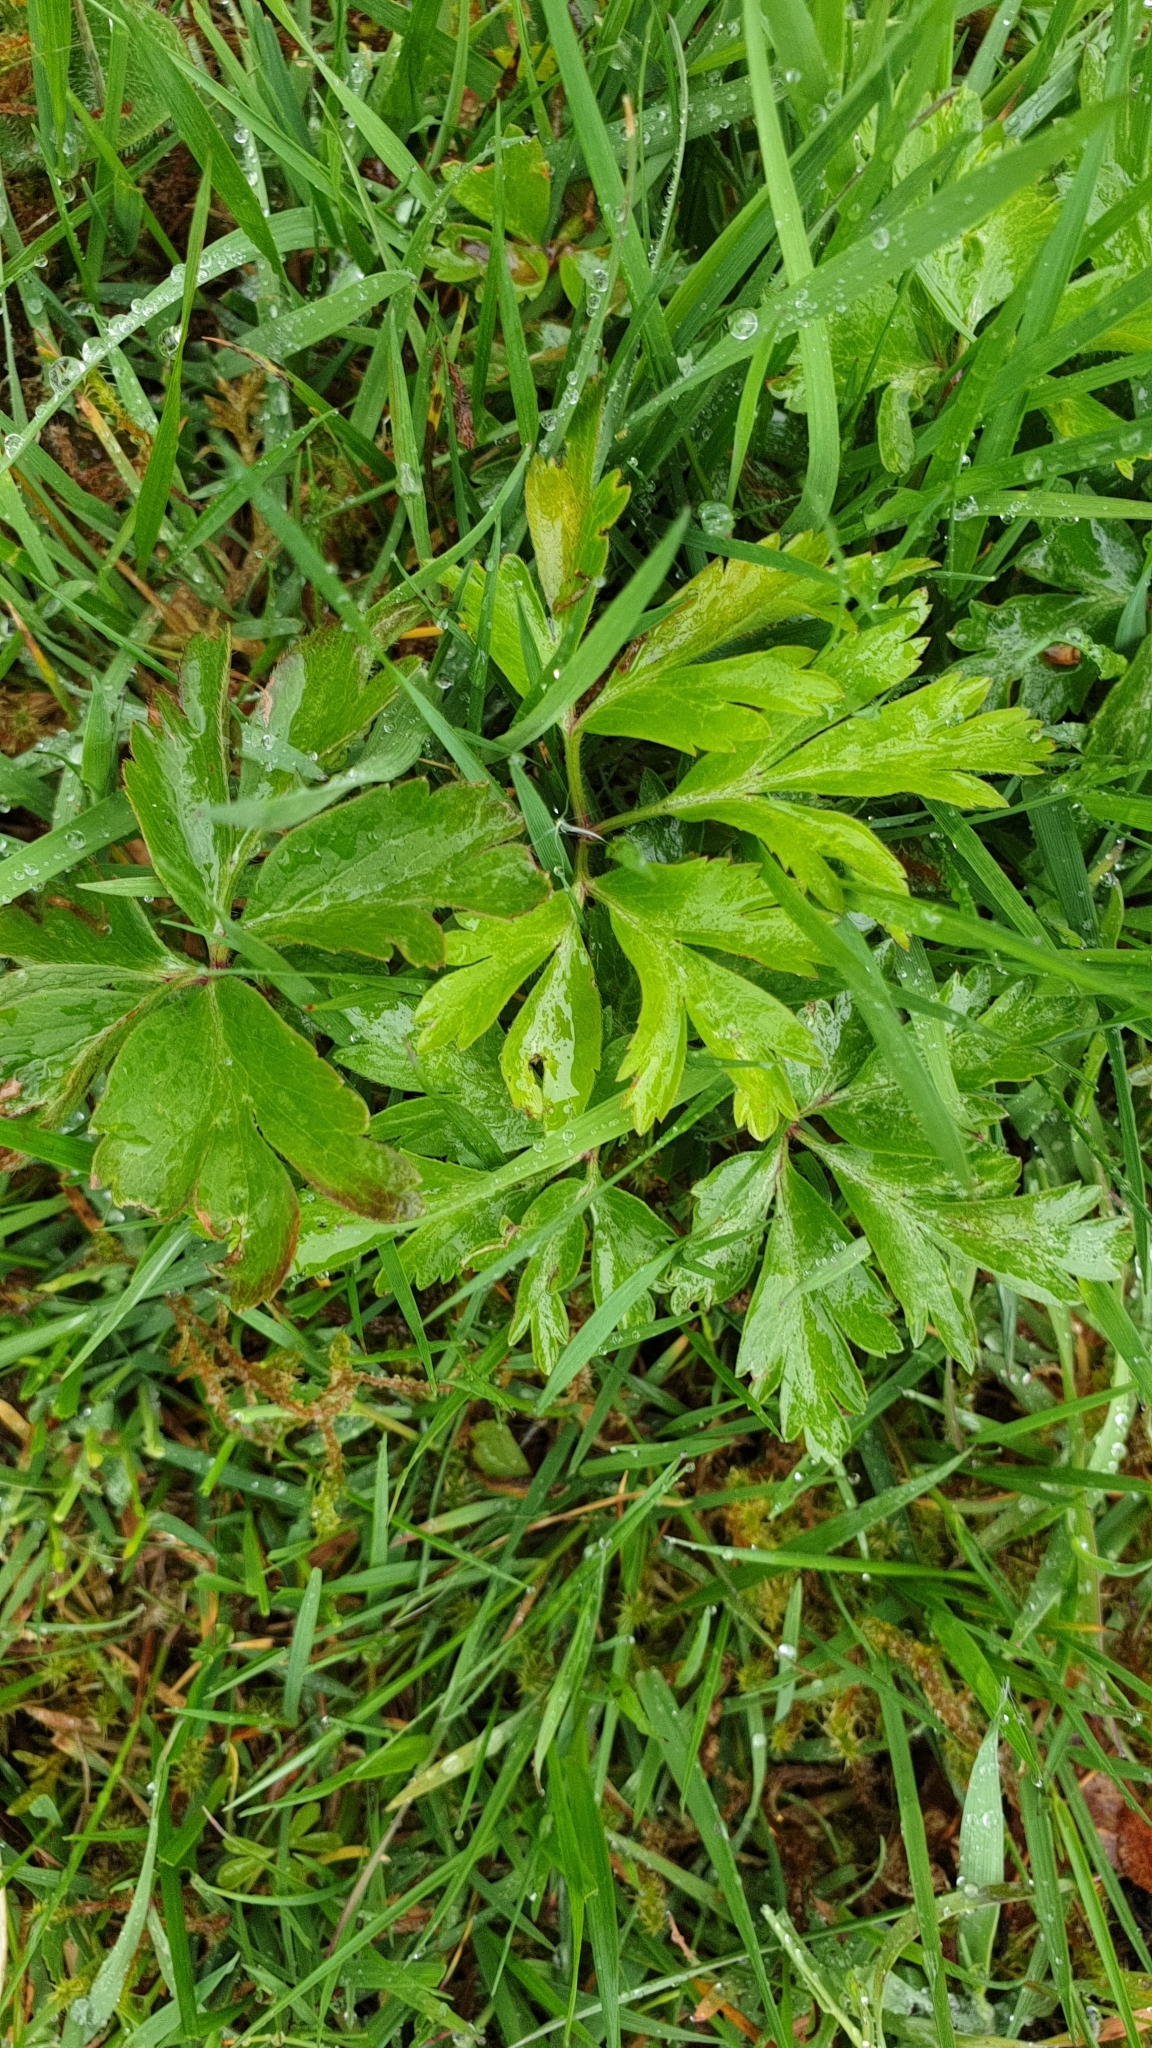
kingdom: Plantae
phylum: Tracheophyta
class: Magnoliopsida
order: Ranunculales
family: Ranunculaceae
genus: Anemone
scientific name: Anemone nemorosa
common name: Wood anemone
